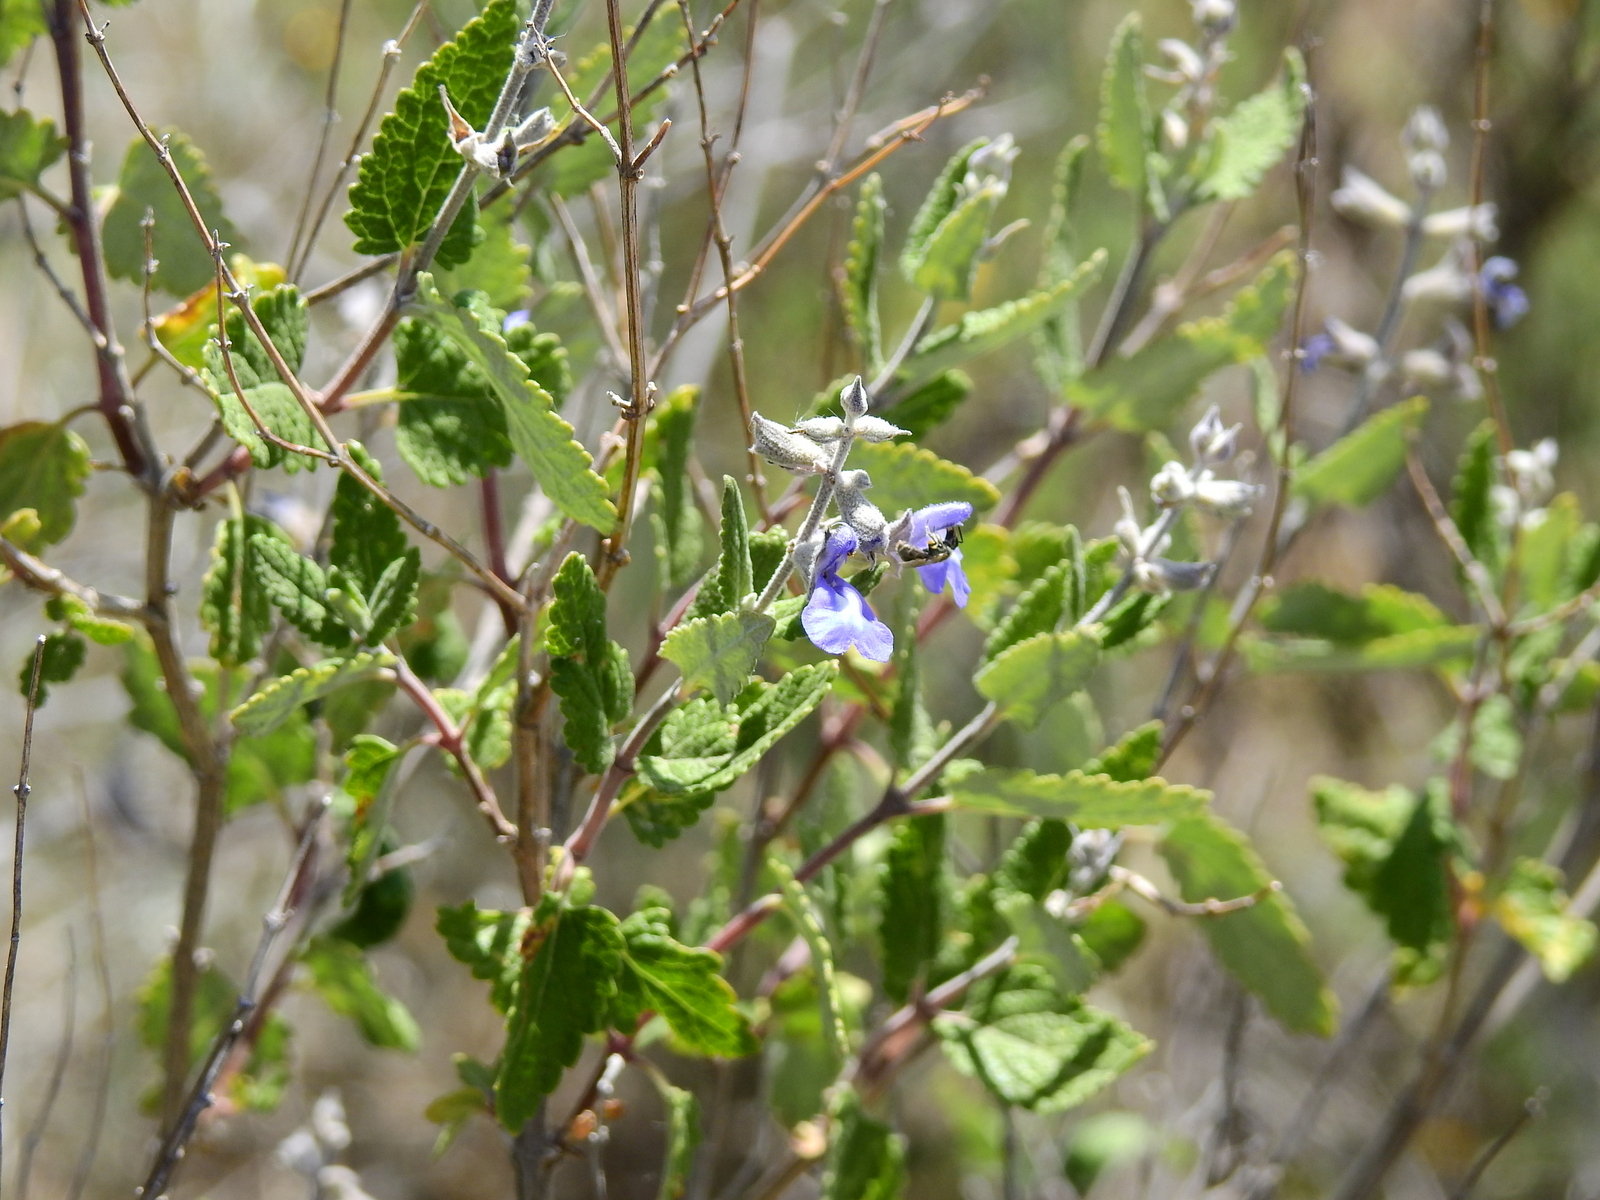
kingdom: Plantae
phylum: Tracheophyta
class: Magnoliopsida
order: Lamiales
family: Lamiaceae
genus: Salvia
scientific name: Salvia cuspidata
